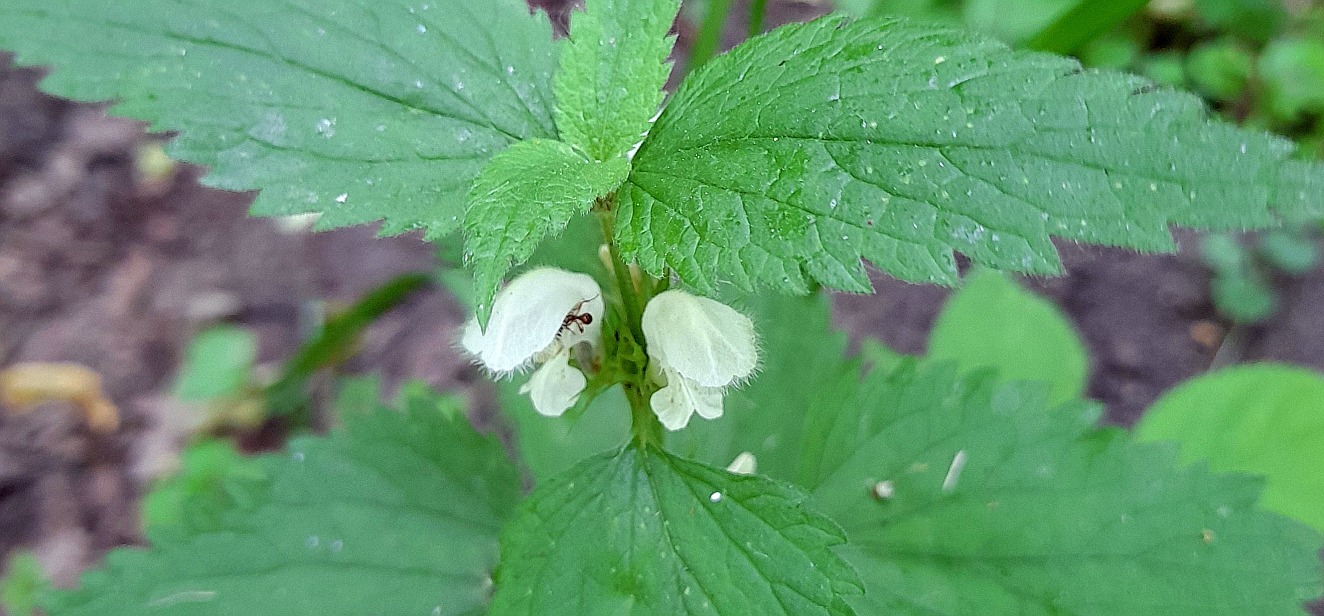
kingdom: Plantae
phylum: Tracheophyta
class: Magnoliopsida
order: Lamiales
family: Lamiaceae
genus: Lamium
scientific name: Lamium album
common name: White dead-nettle
